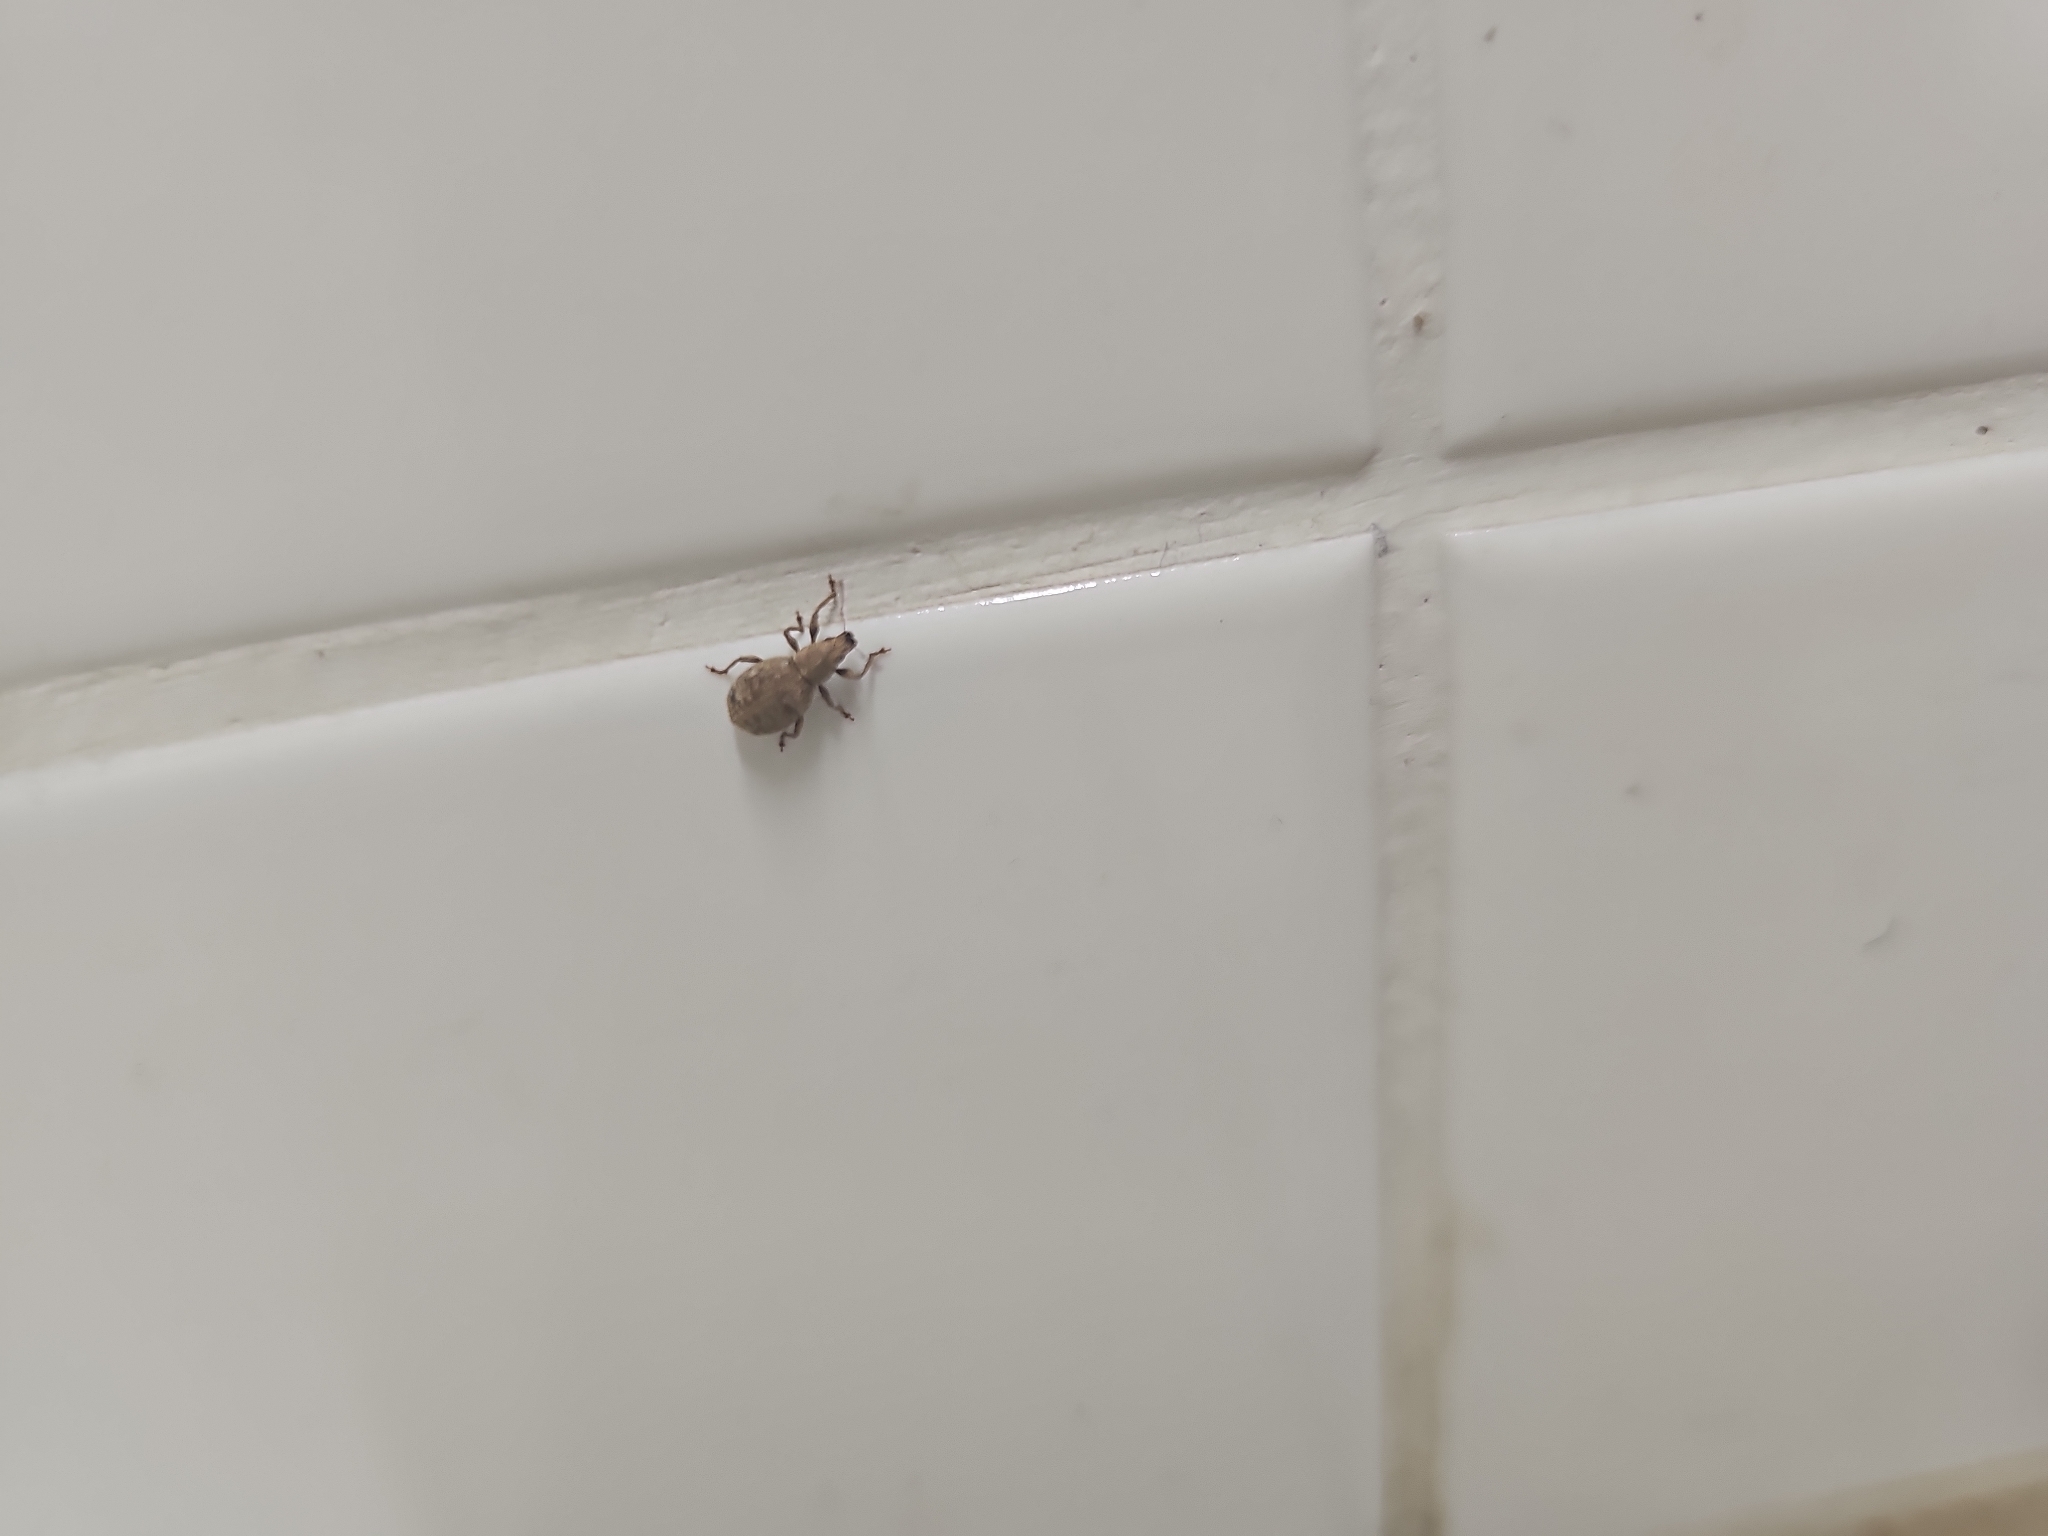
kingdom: Animalia
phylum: Arthropoda
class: Insecta
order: Coleoptera
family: Curculionidae
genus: Sciaphilus
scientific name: Sciaphilus asperatus
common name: Weevil
